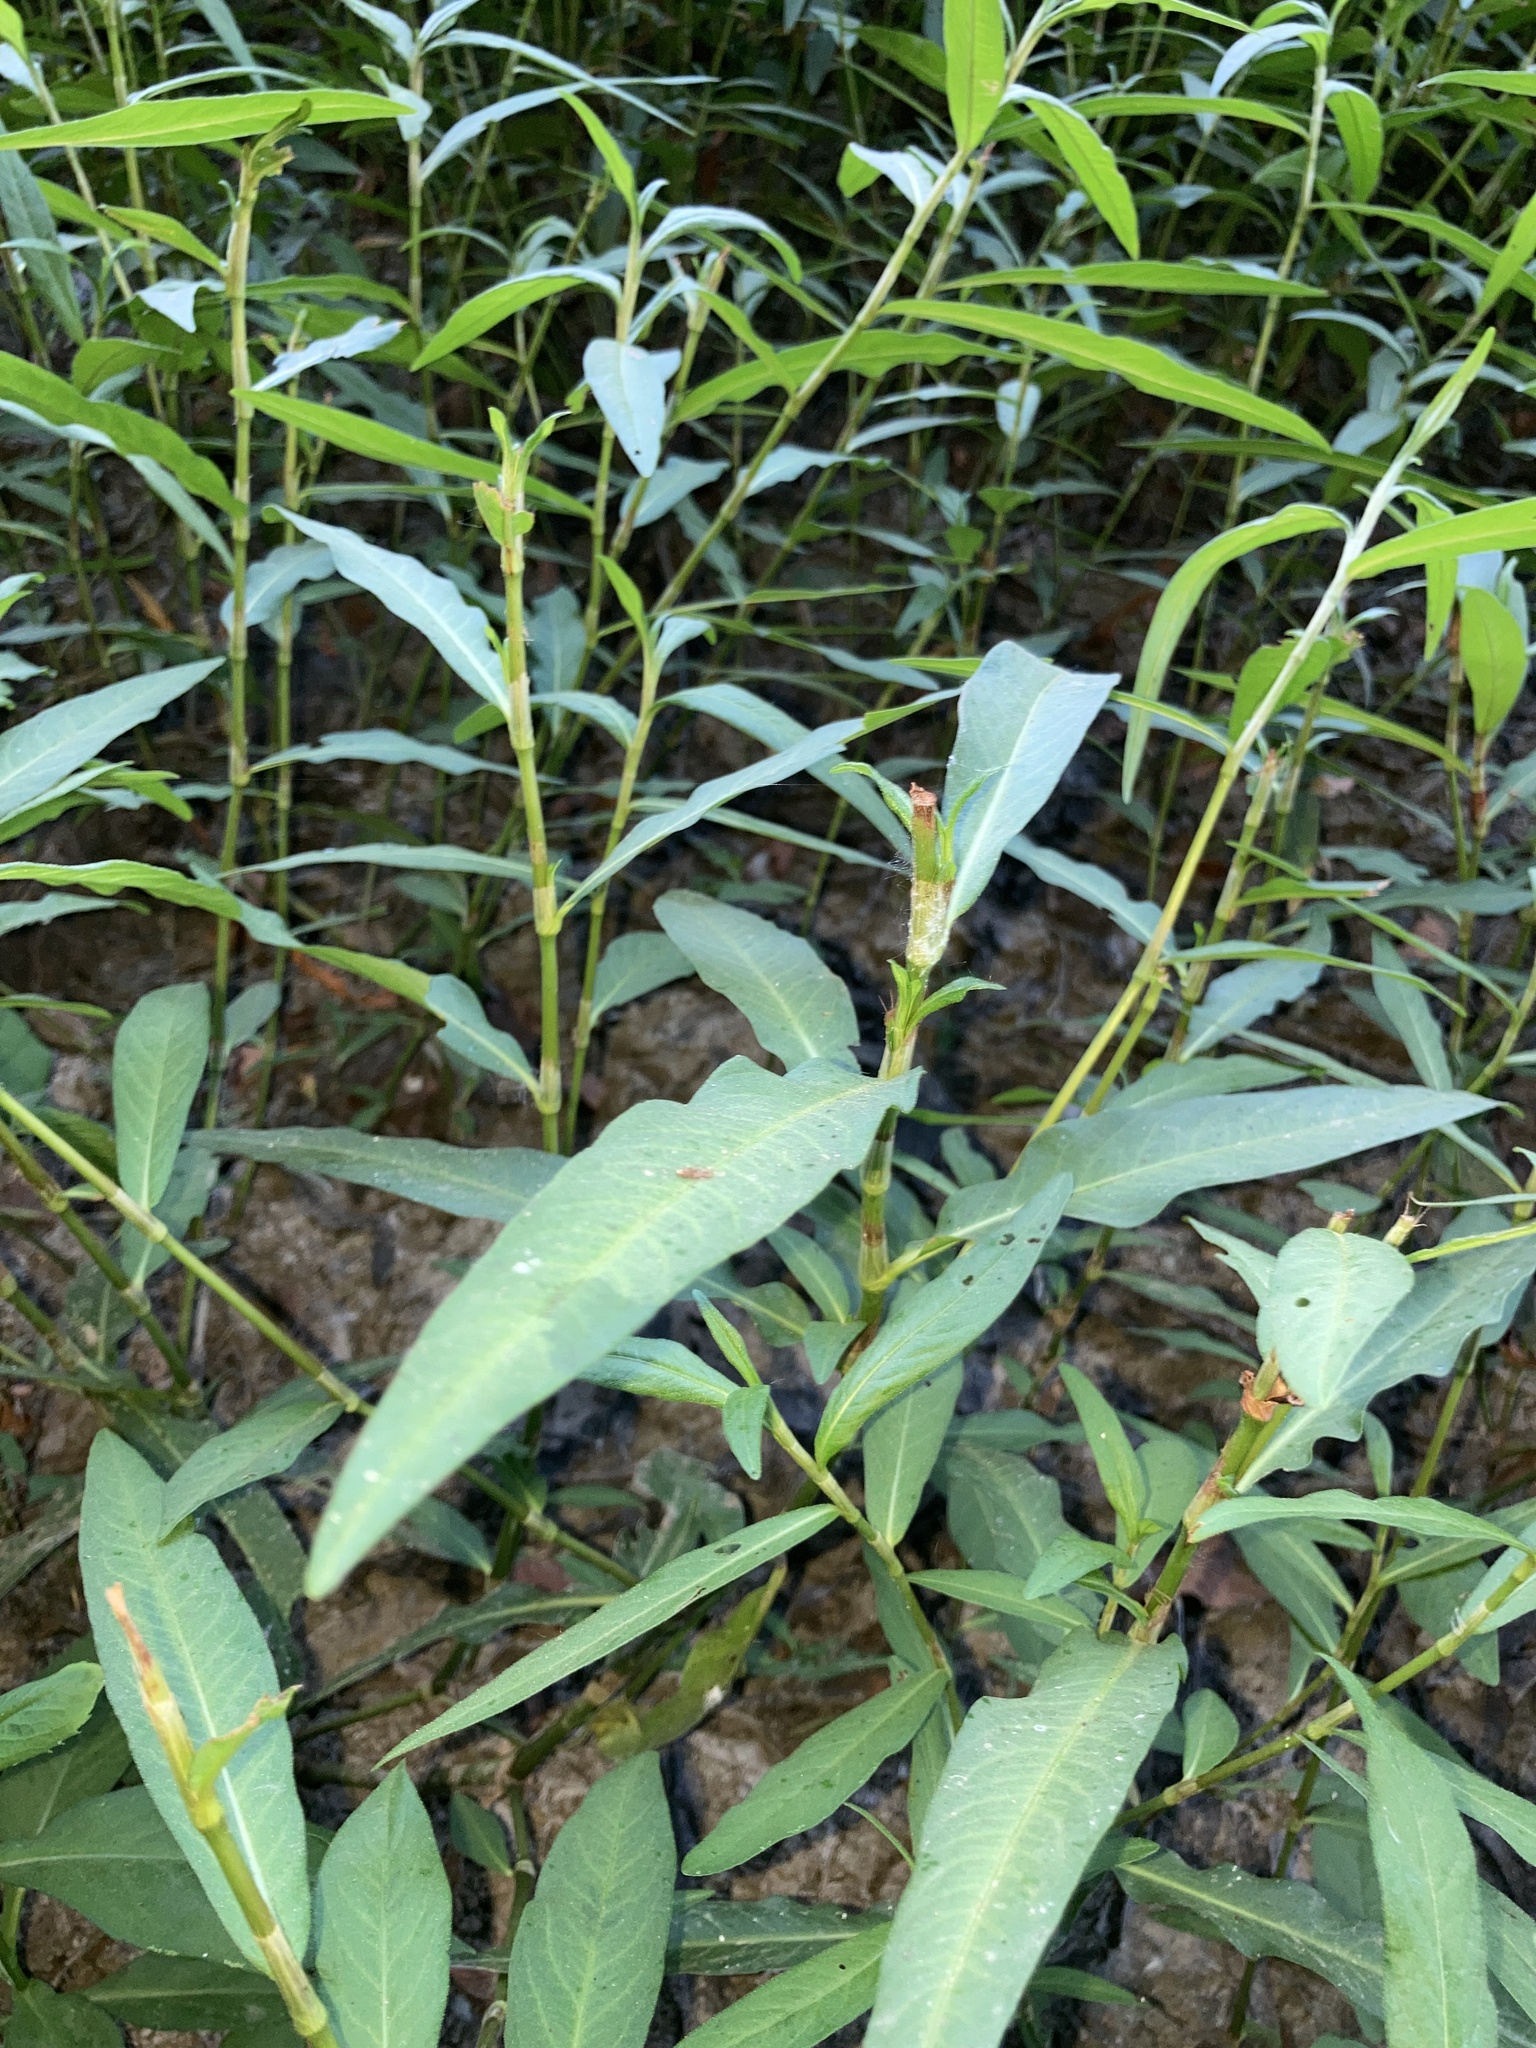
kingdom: Plantae
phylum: Tracheophyta
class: Magnoliopsida
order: Caryophyllales
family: Polygonaceae
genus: Persicaria
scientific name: Persicaria hydropiperoides
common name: Swamp smartweed
